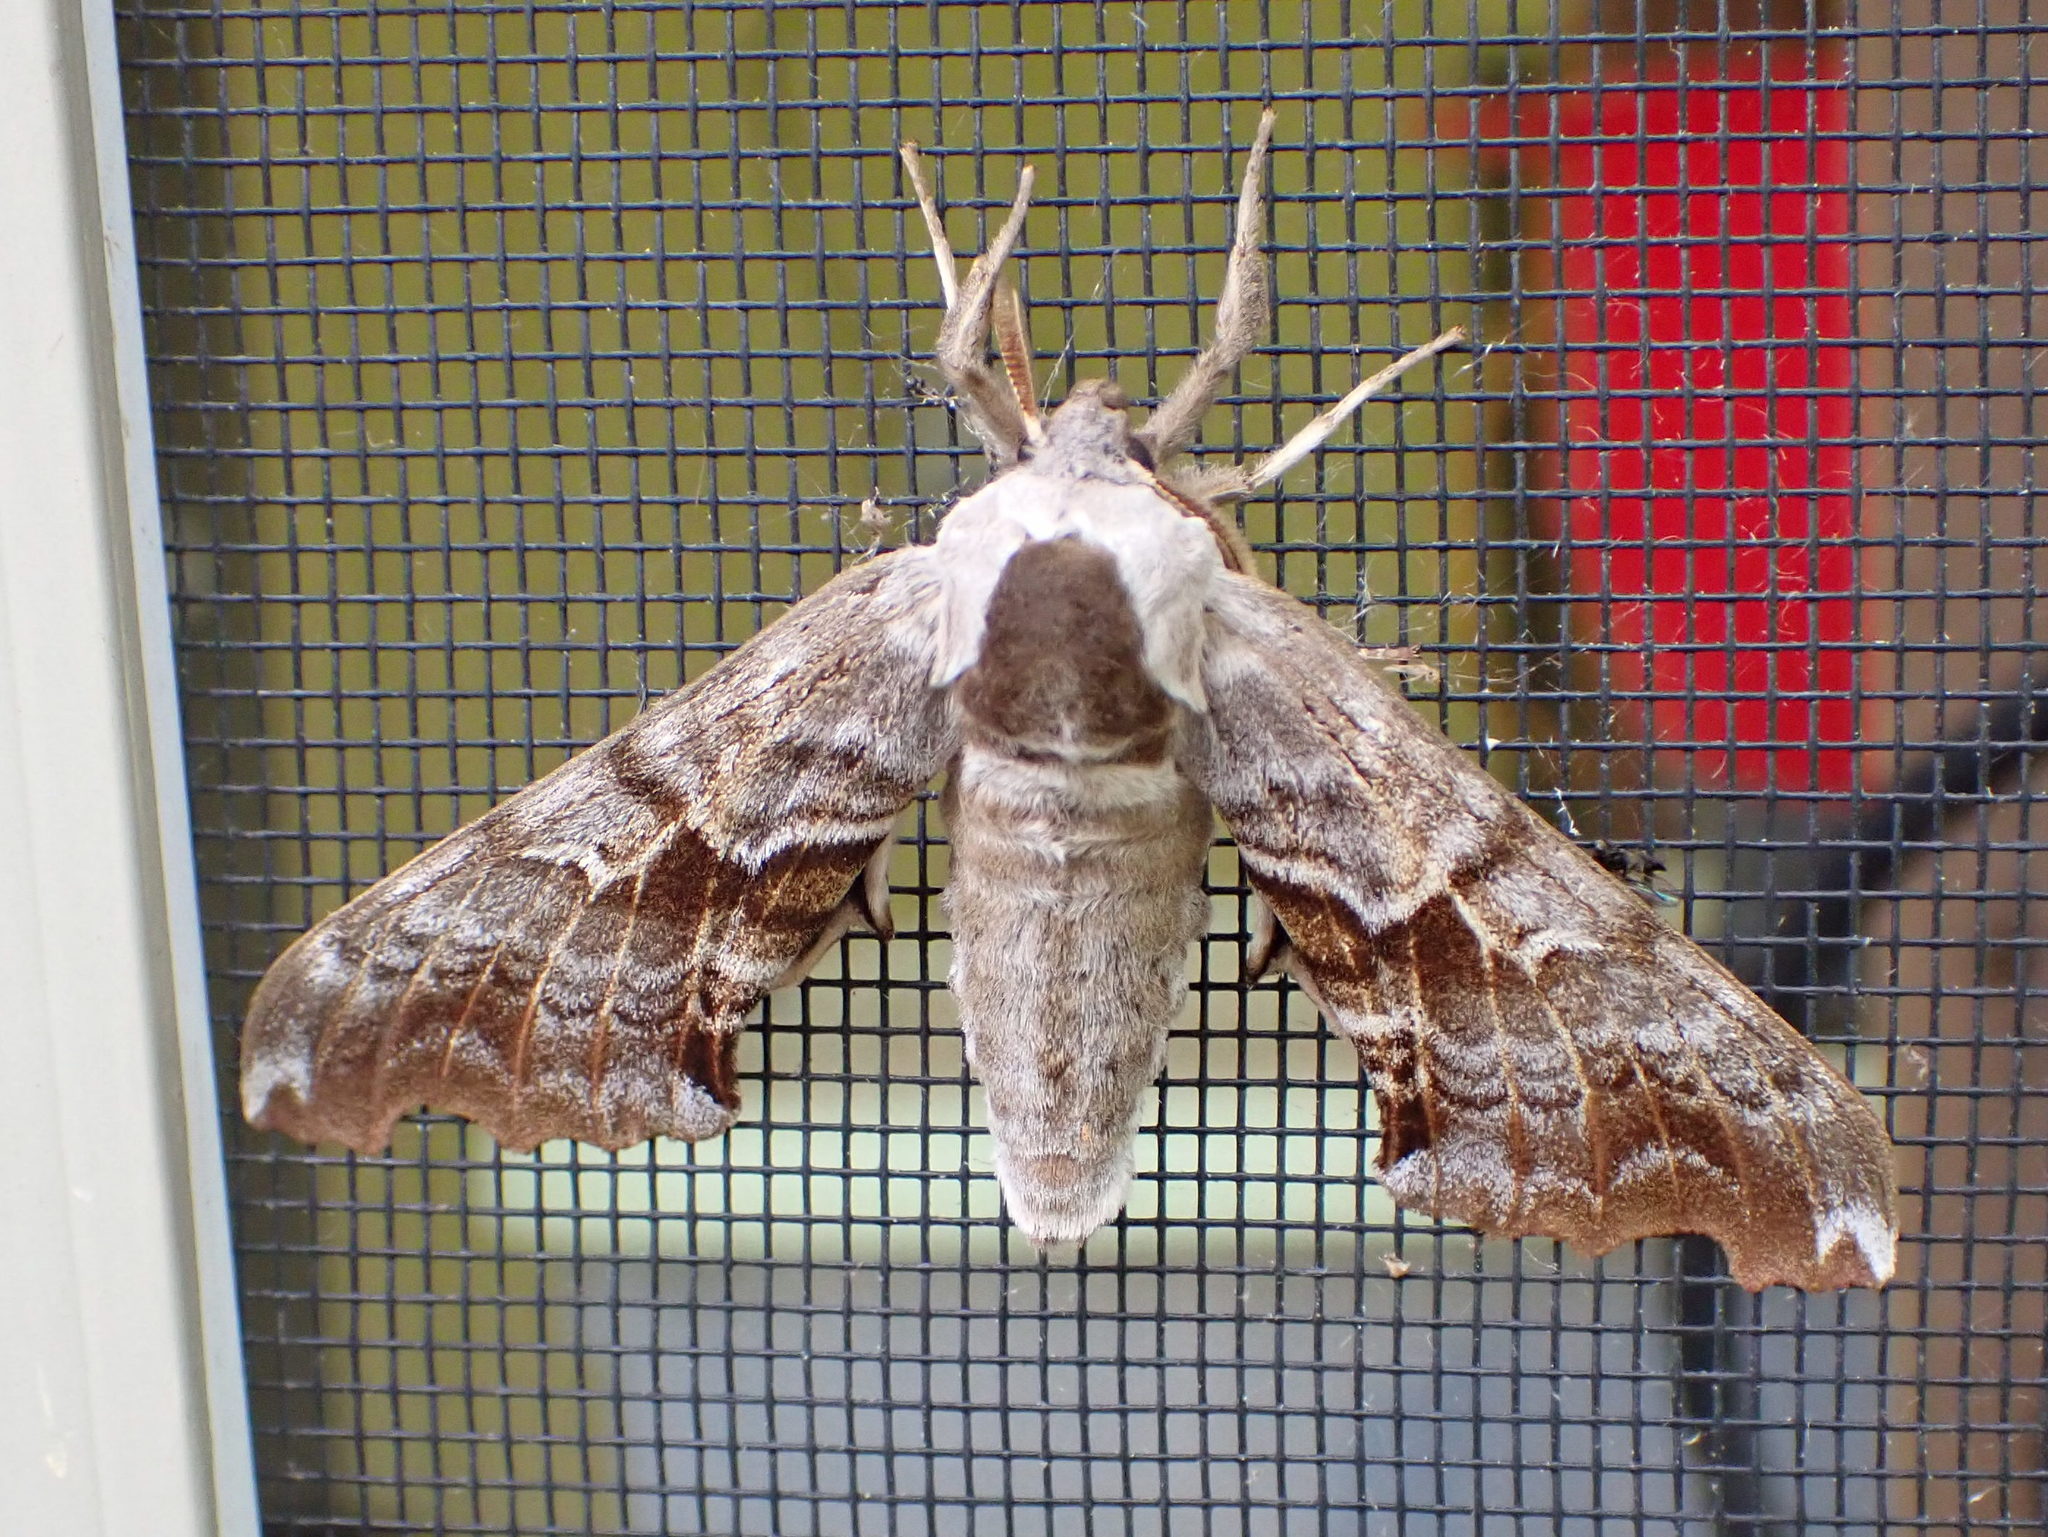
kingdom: Animalia
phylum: Arthropoda
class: Insecta
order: Lepidoptera
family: Sphingidae
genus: Smerinthus
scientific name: Smerinthus cerisyi
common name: Cerisy's sphinx moth
